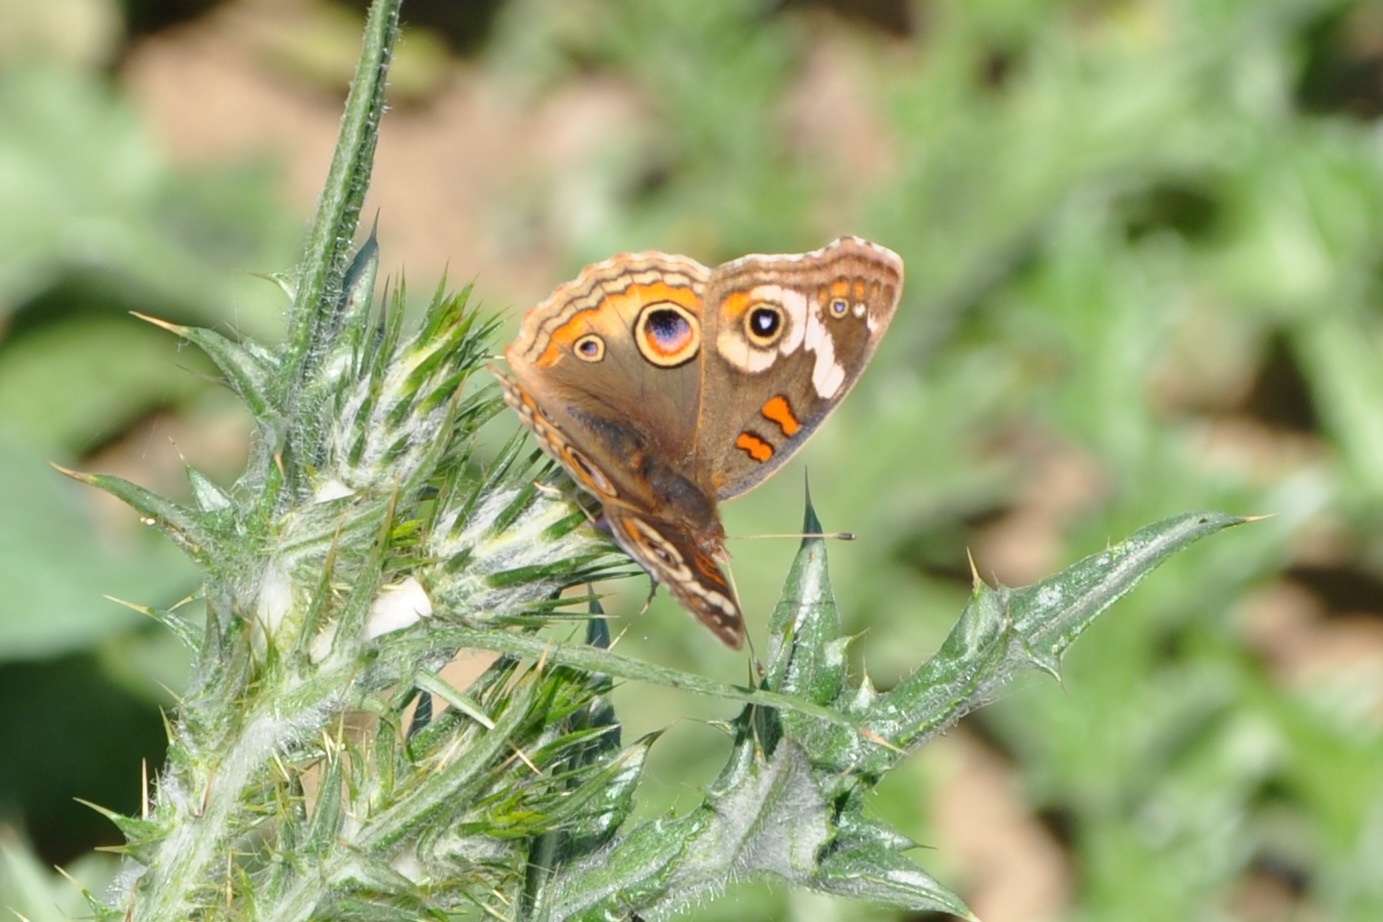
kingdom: Animalia
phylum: Arthropoda
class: Insecta
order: Lepidoptera
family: Nymphalidae
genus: Junonia
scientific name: Junonia grisea
